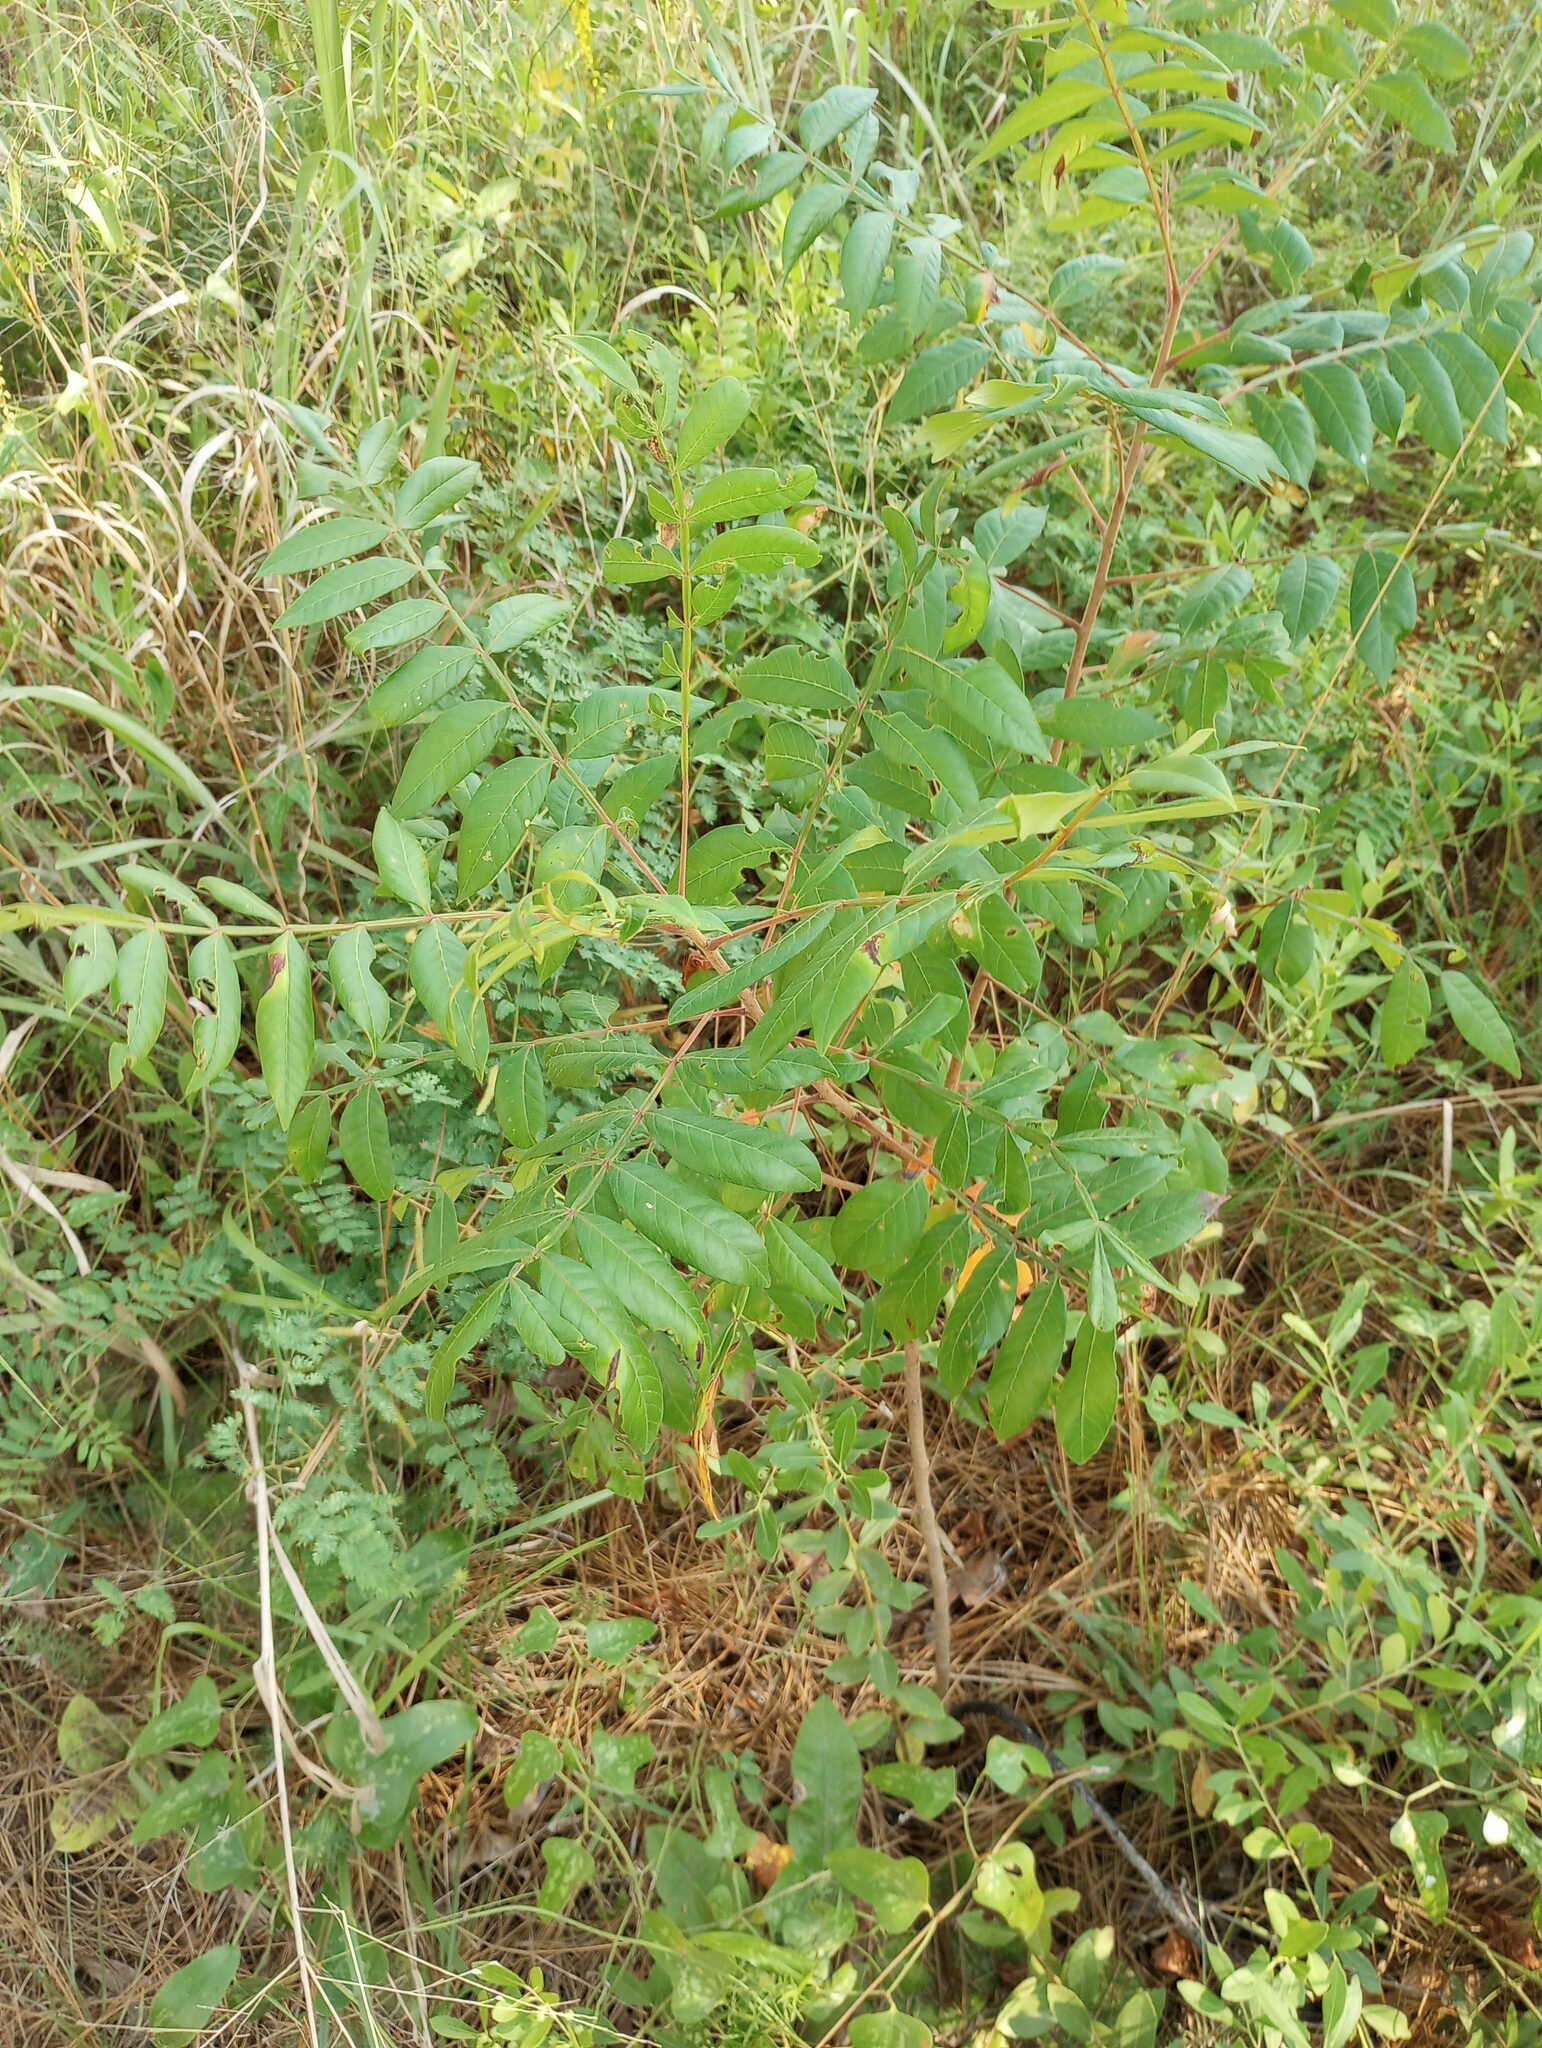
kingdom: Plantae
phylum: Tracheophyta
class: Magnoliopsida
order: Sapindales
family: Anacardiaceae
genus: Rhus
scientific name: Rhus copallina
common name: Shining sumac
